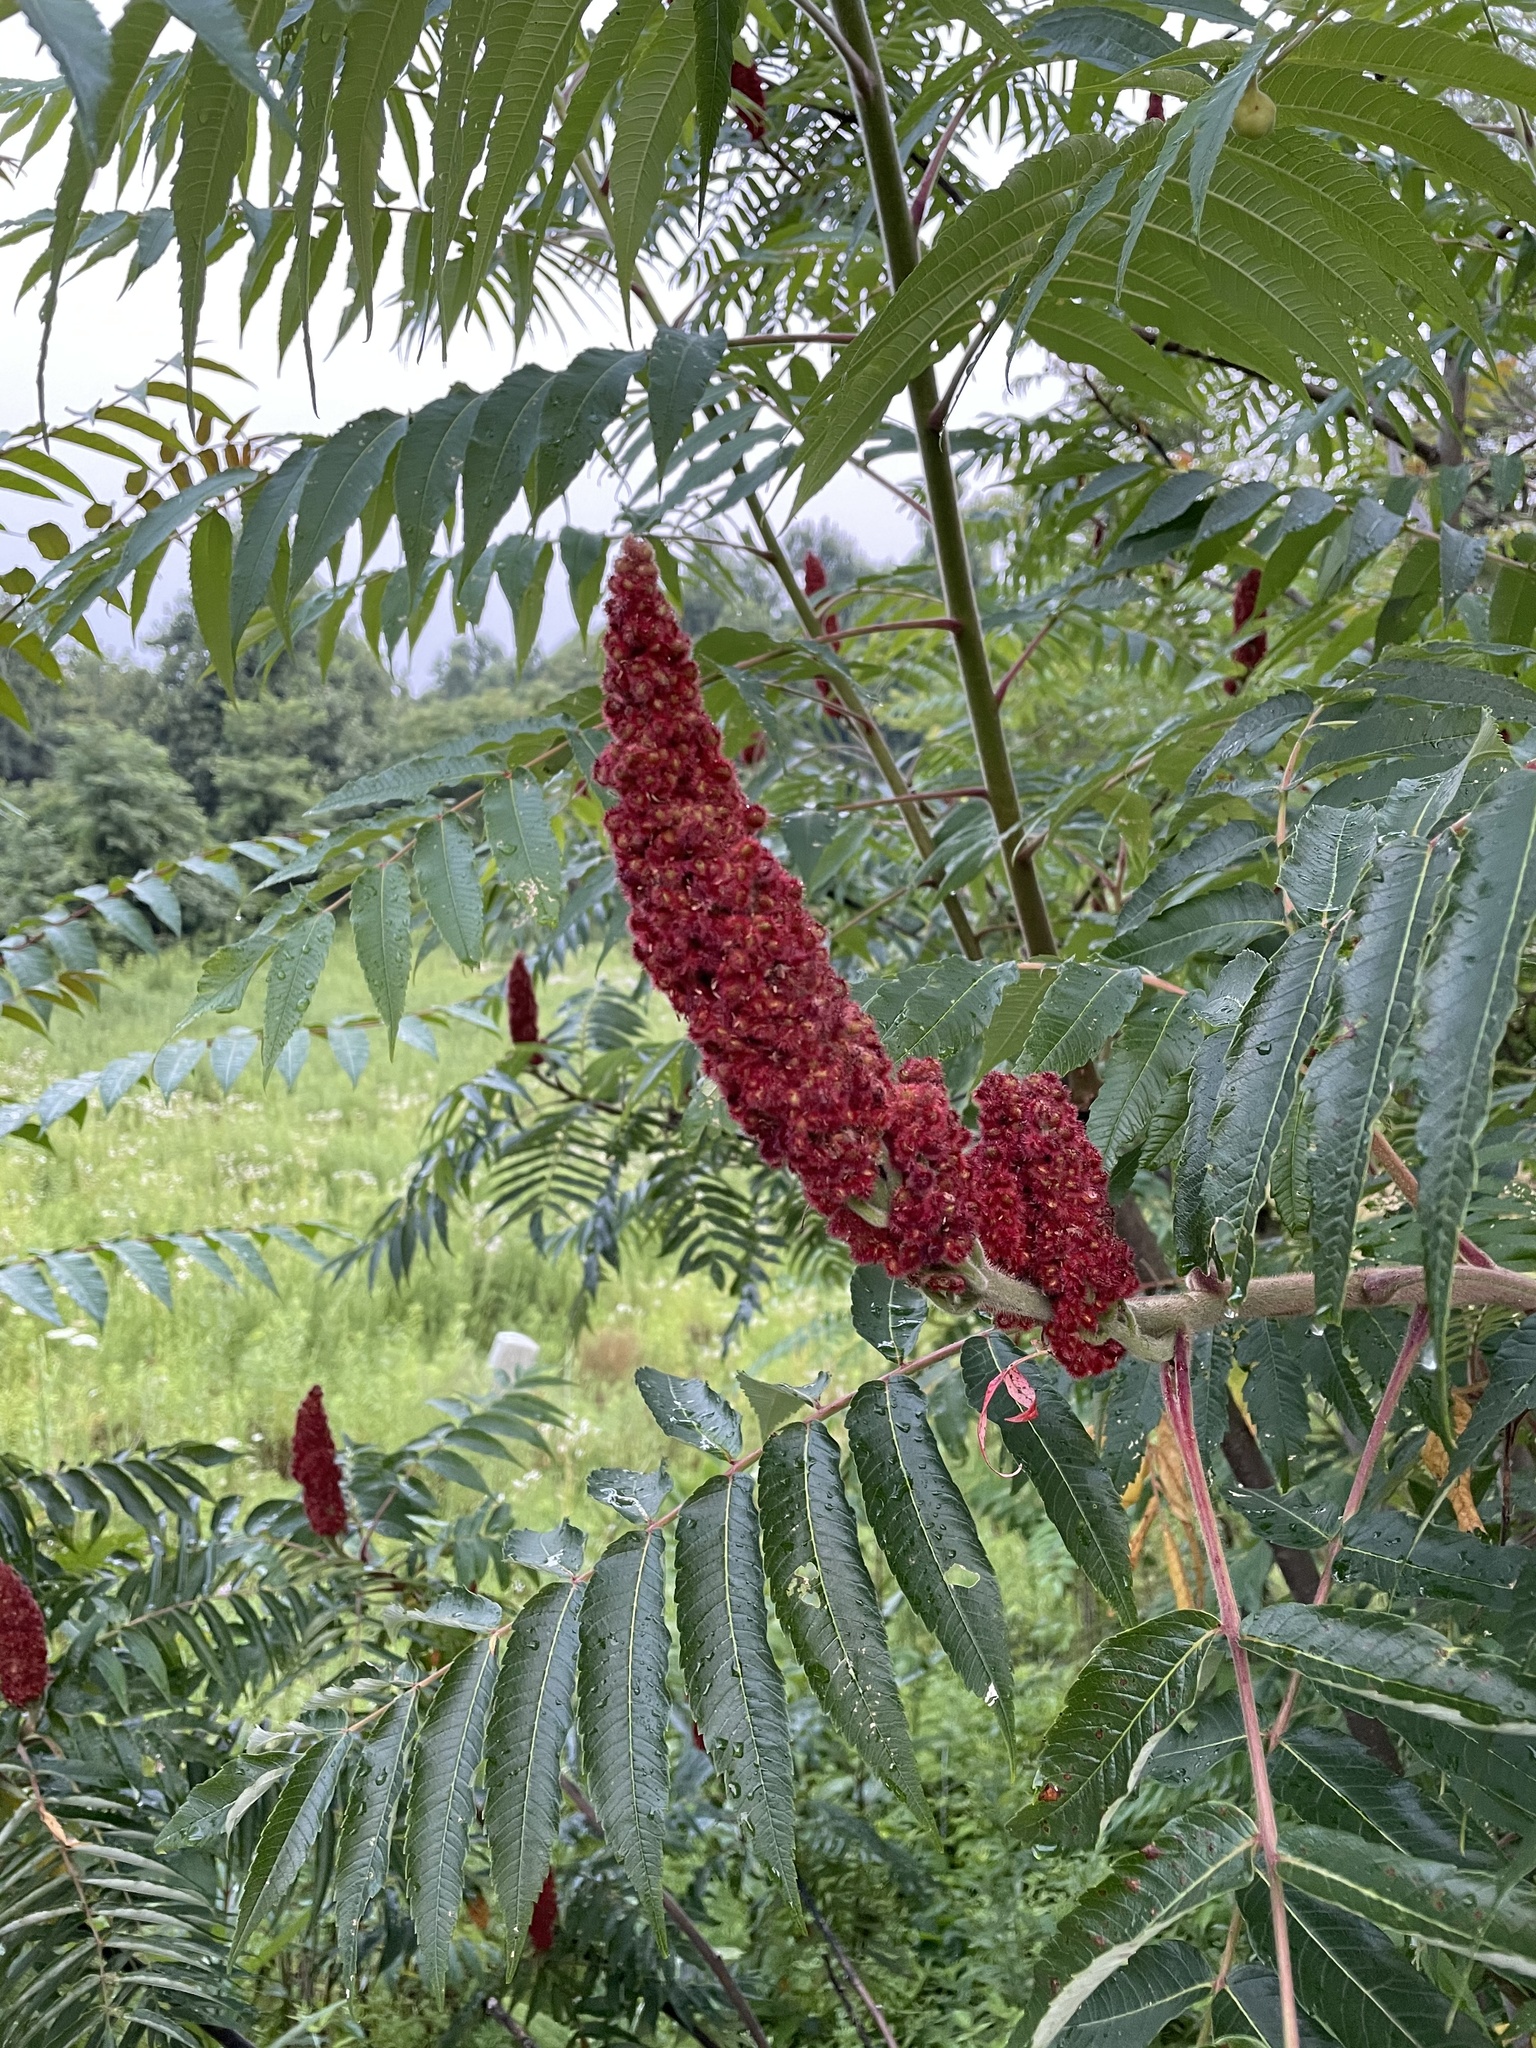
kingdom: Plantae
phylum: Tracheophyta
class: Magnoliopsida
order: Sapindales
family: Anacardiaceae
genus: Rhus
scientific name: Rhus typhina
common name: Staghorn sumac
